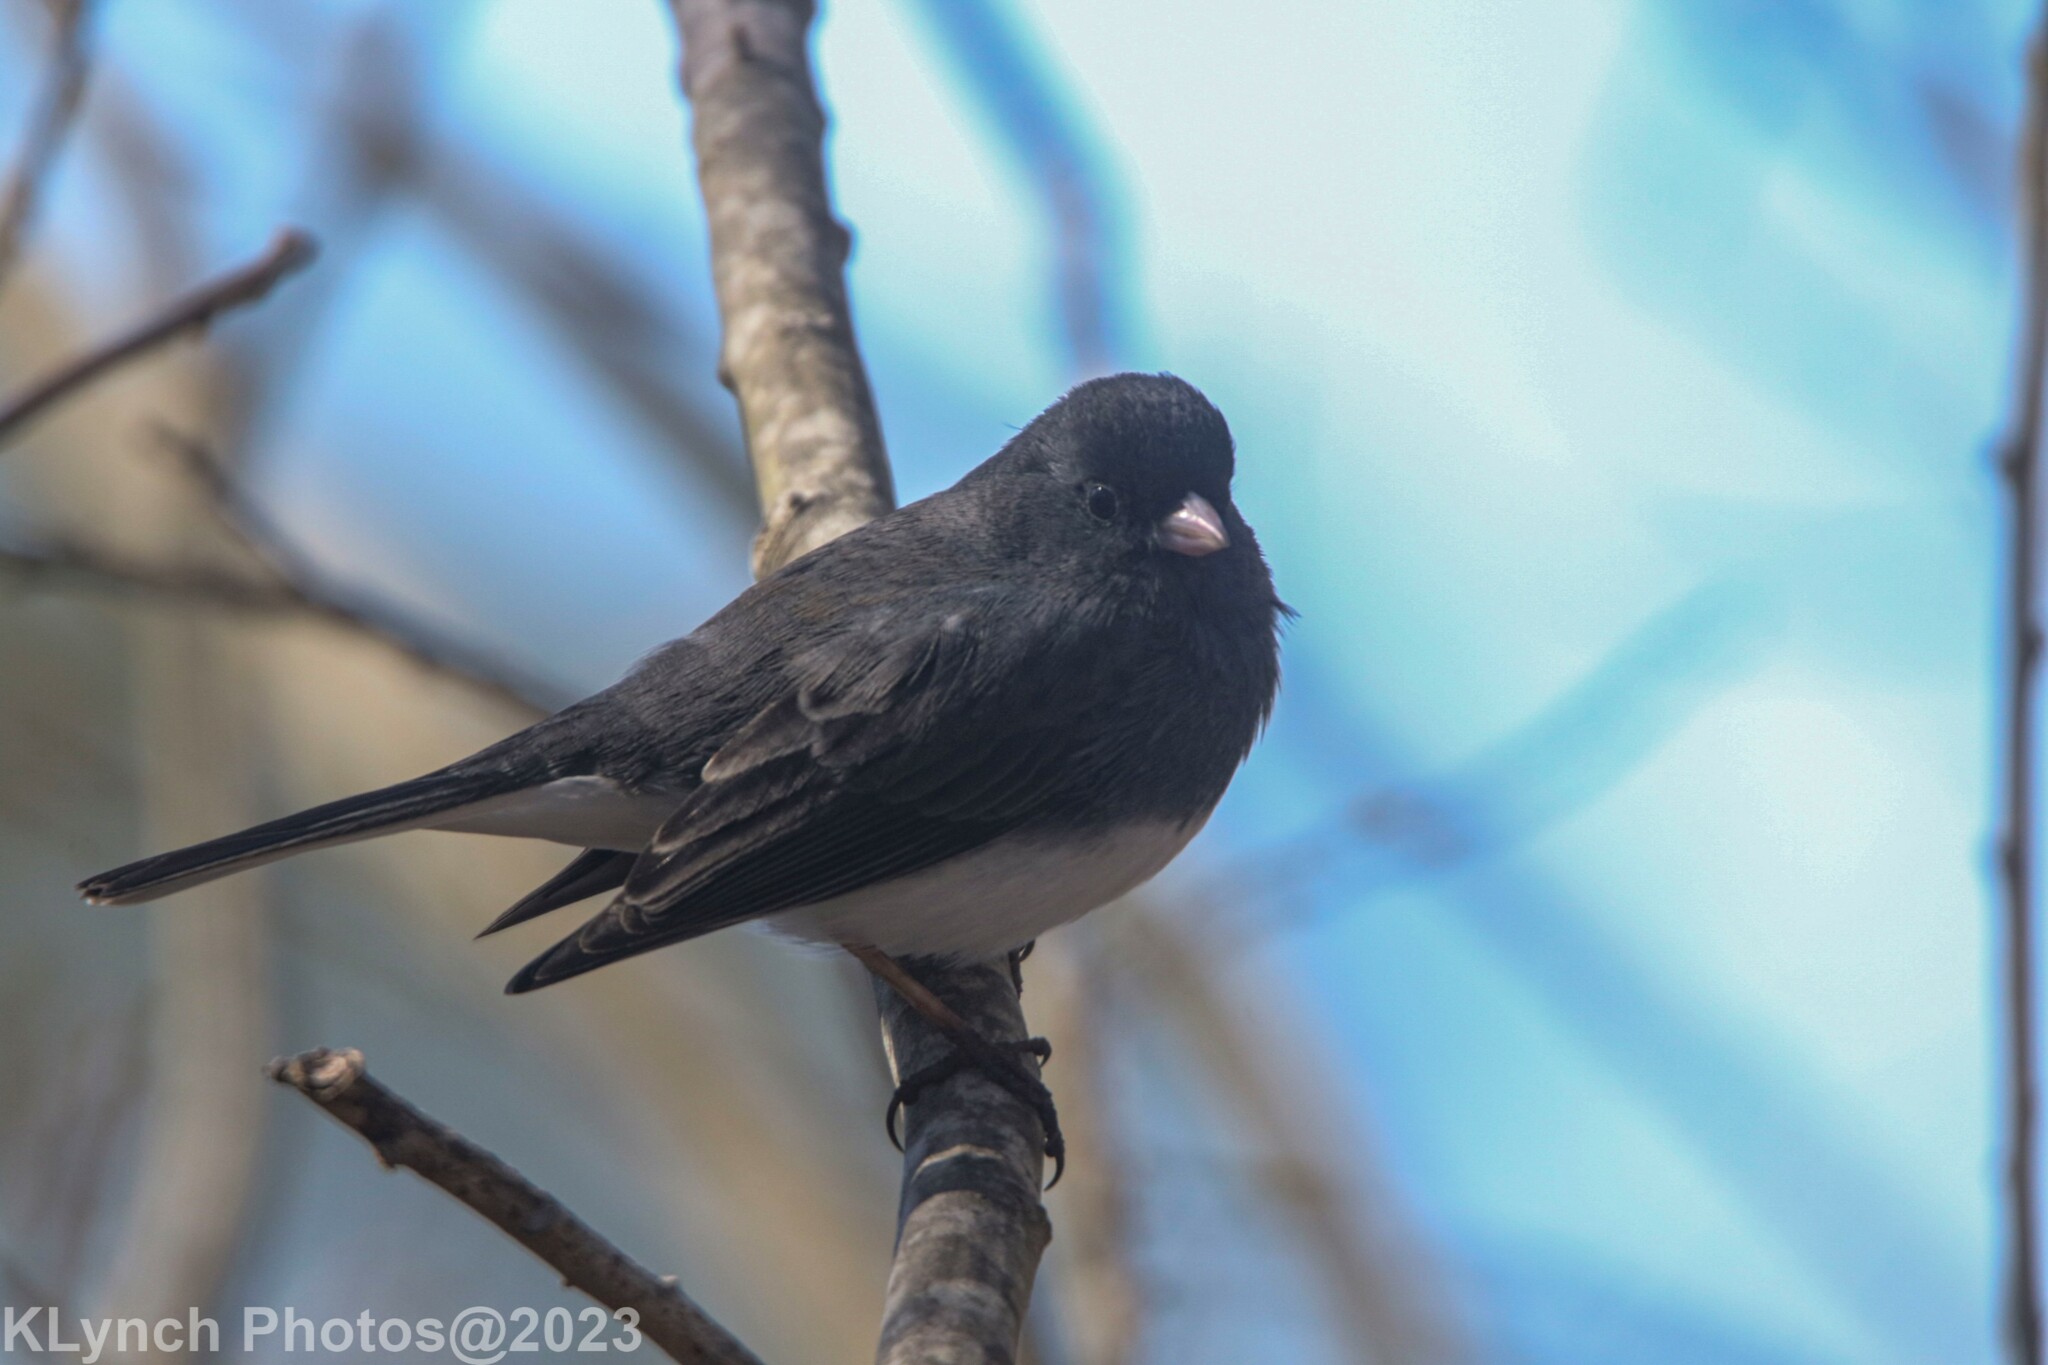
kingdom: Animalia
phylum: Chordata
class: Aves
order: Passeriformes
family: Passerellidae
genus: Junco
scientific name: Junco hyemalis
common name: Dark-eyed junco
